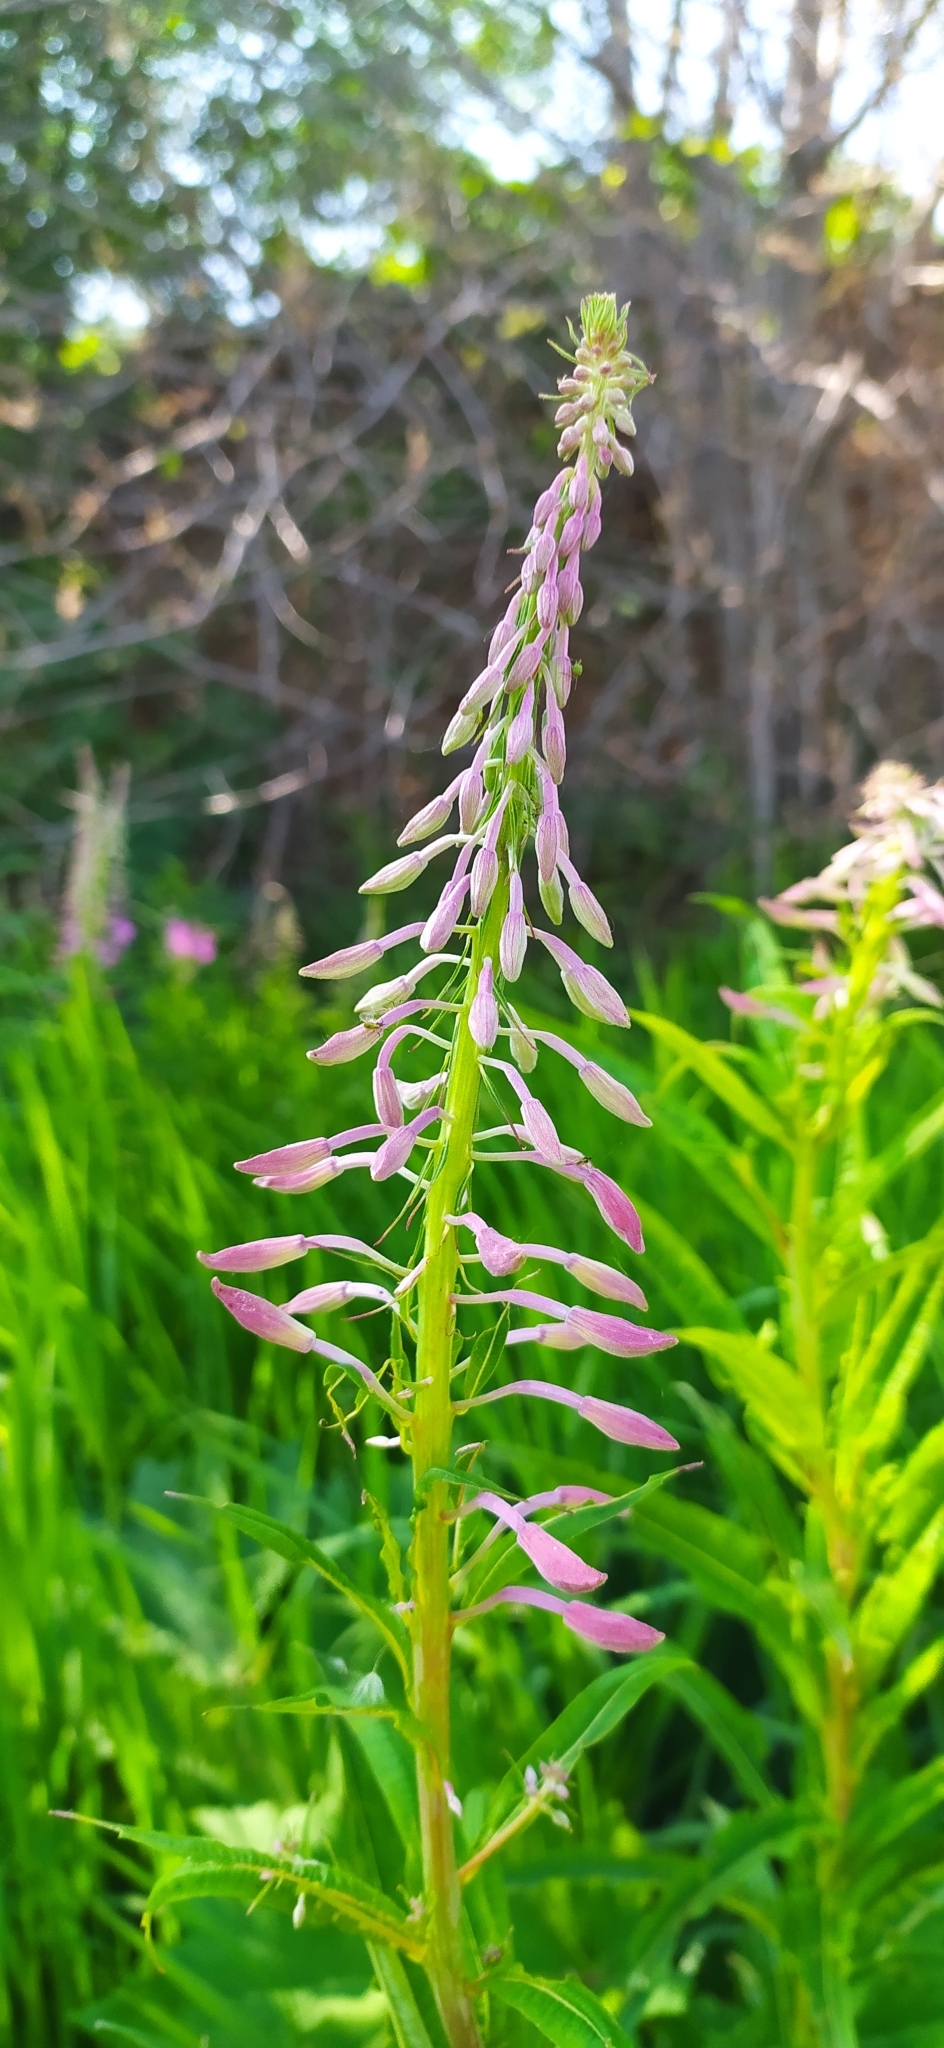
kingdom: Plantae
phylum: Tracheophyta
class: Magnoliopsida
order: Myrtales
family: Onagraceae
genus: Chamaenerion
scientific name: Chamaenerion angustifolium
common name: Fireweed
